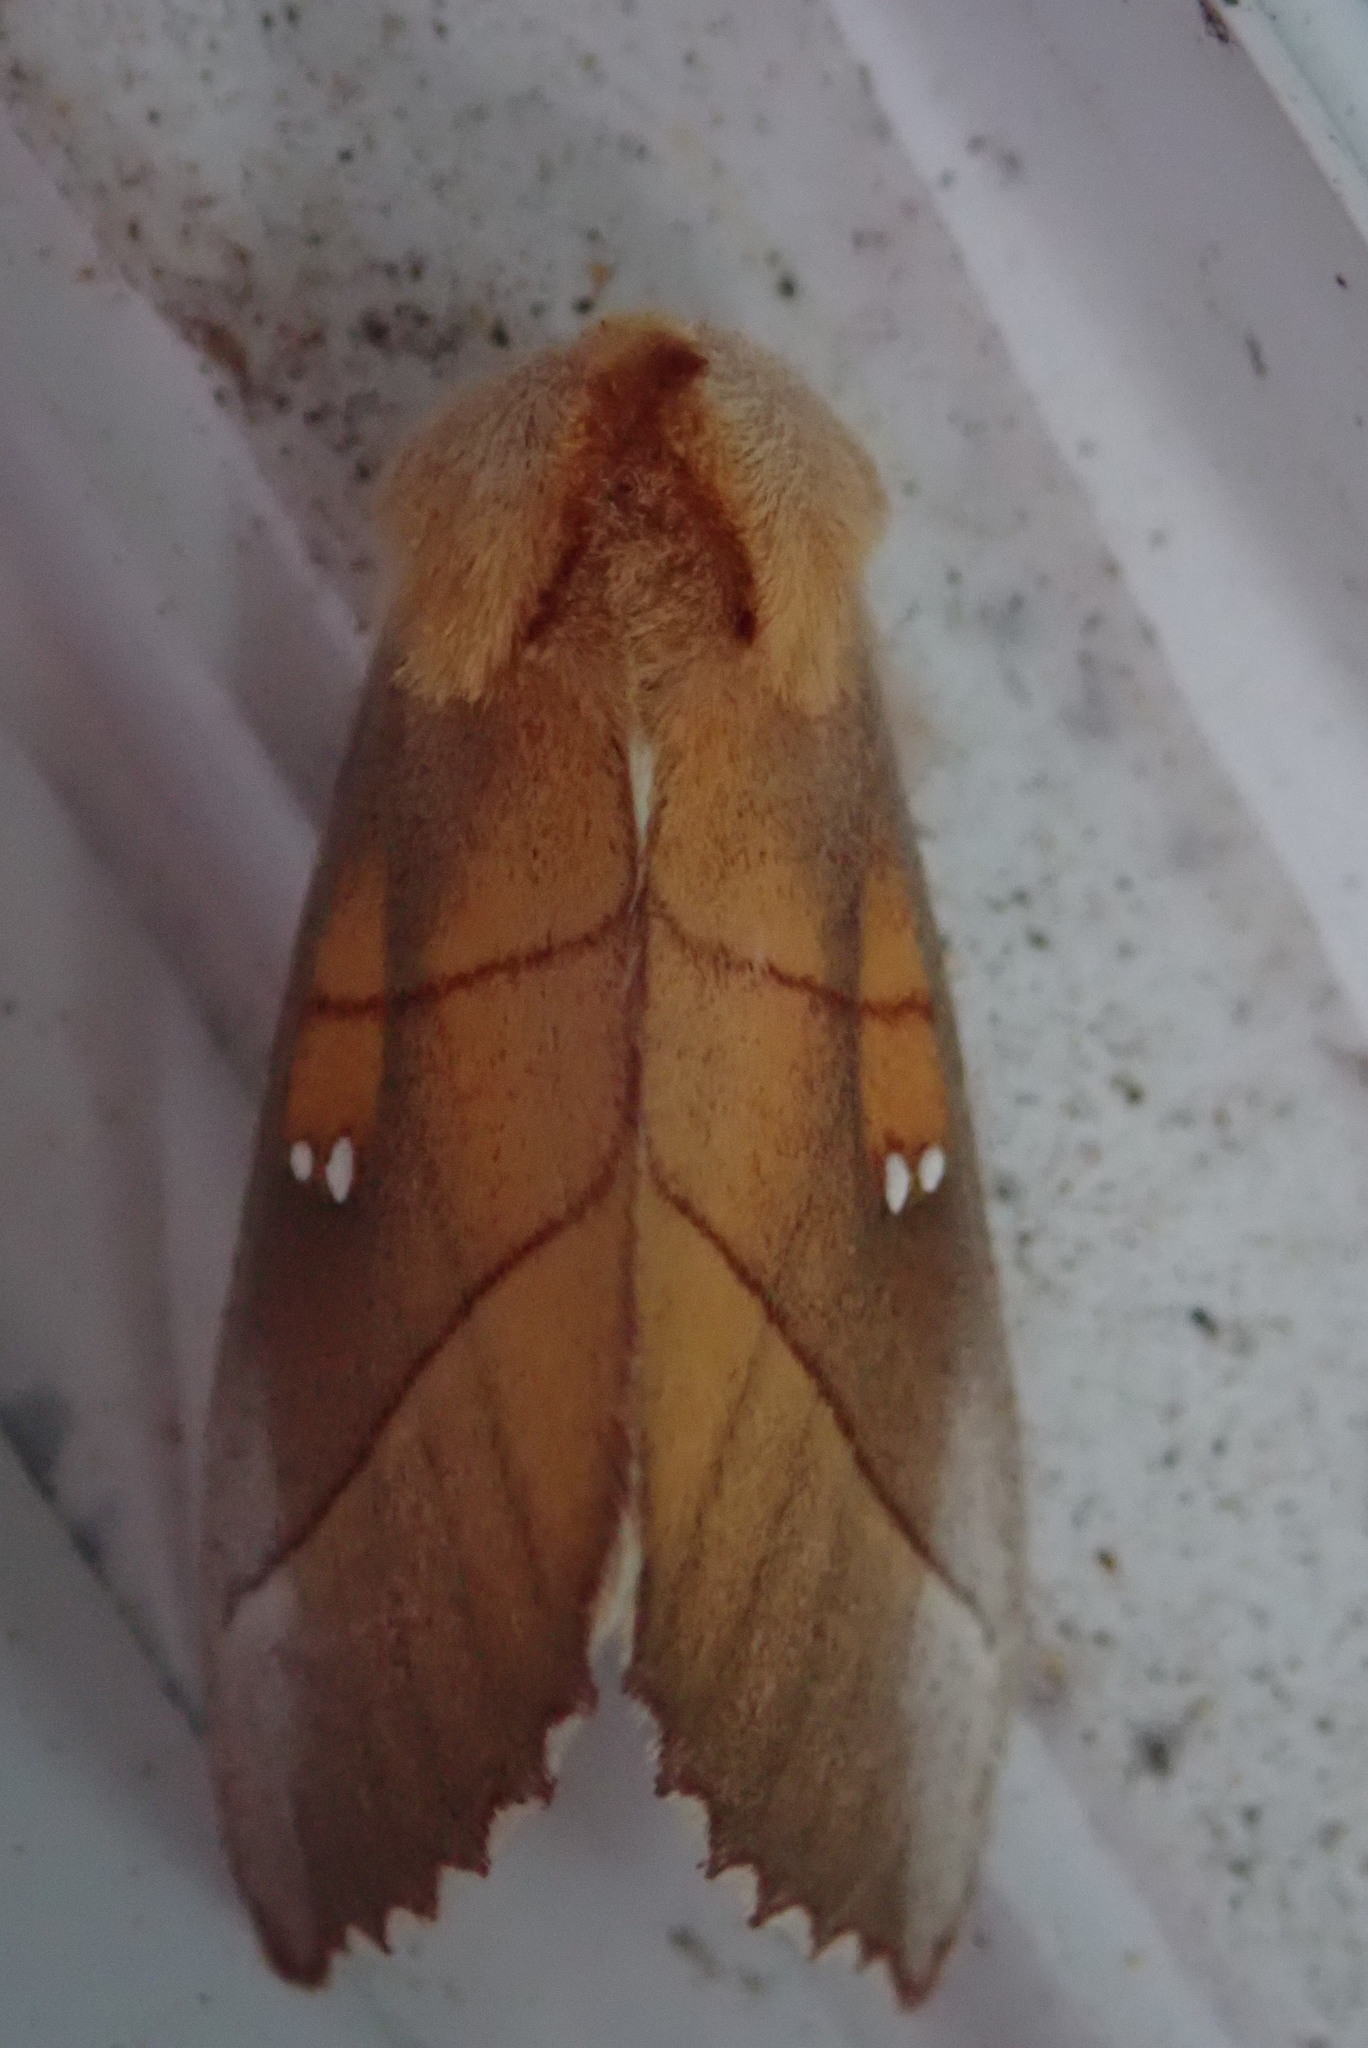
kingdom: Animalia
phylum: Arthropoda
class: Insecta
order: Lepidoptera
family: Notodontidae
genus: Nadata
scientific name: Nadata gibbosa
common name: White-dotted prominent
